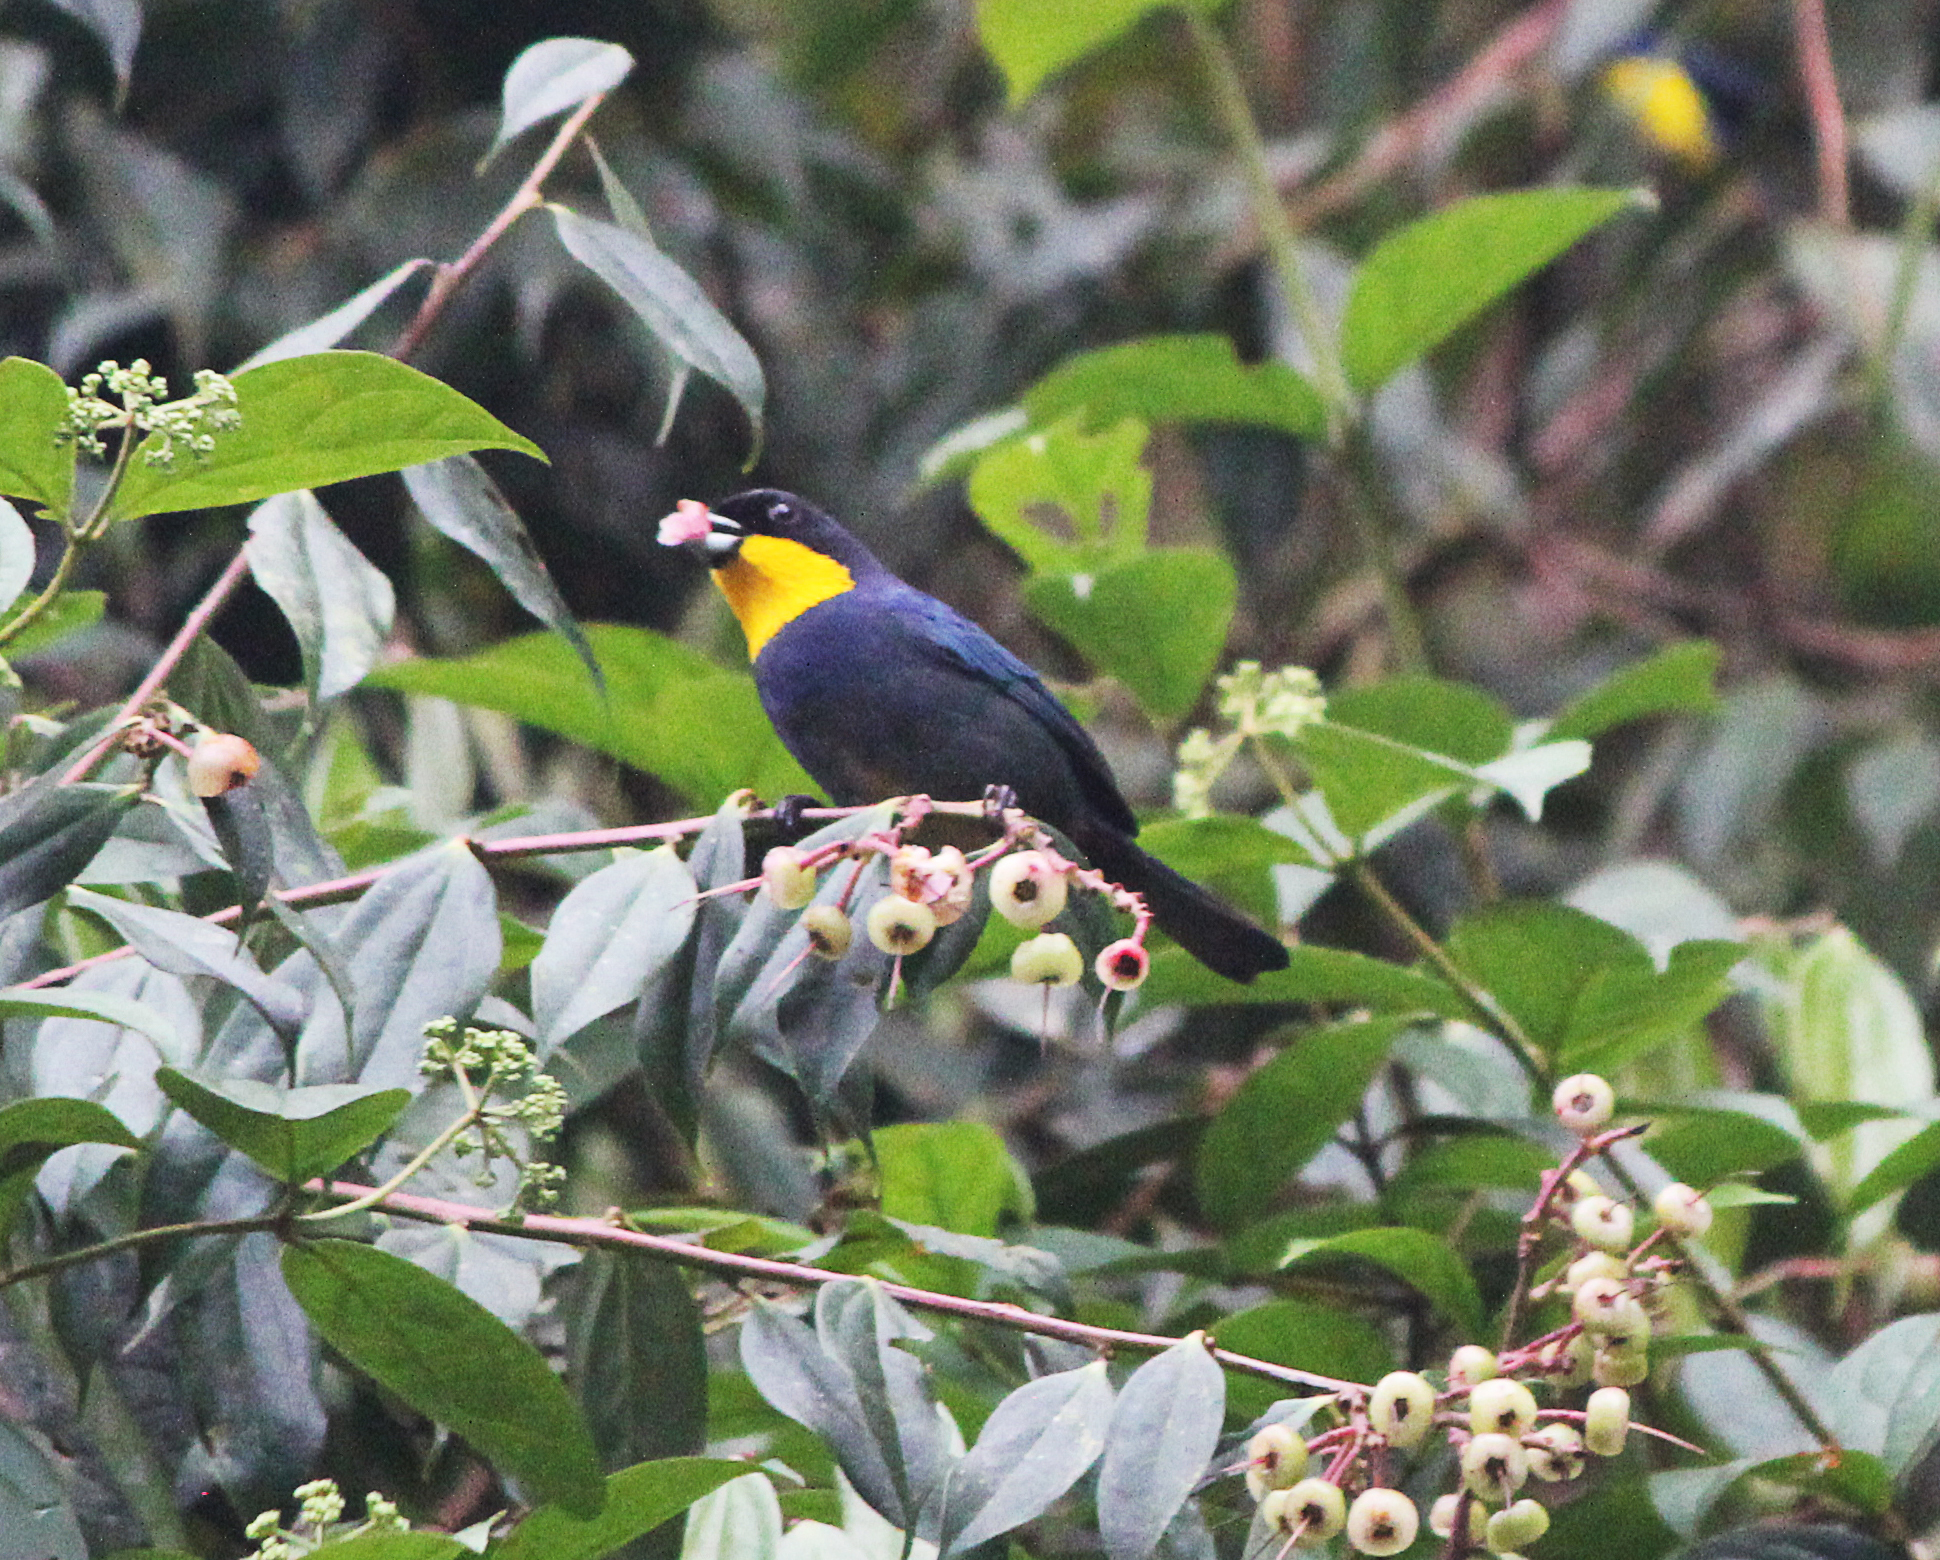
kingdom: Animalia
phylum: Chordata
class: Aves
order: Passeriformes
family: Thraupidae
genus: Iridosornis
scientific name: Iridosornis porphyrocephalus
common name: Purplish-mantled tanager
